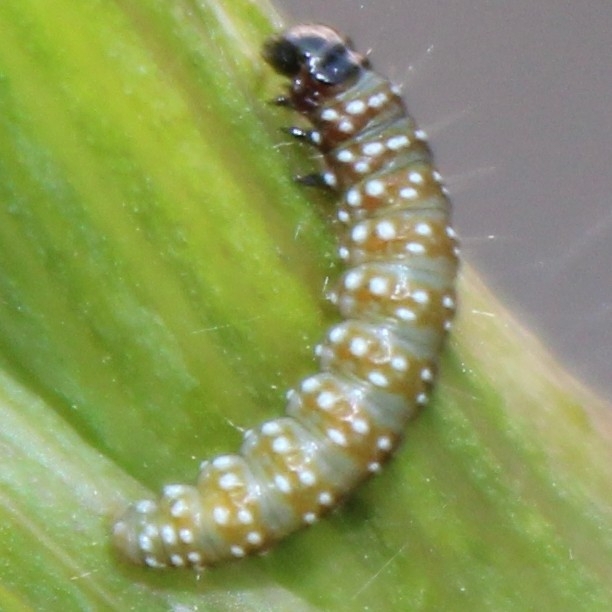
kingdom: Animalia
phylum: Arthropoda
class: Insecta
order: Lepidoptera
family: Depressariidae
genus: Depressaria
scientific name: Depressaria depressana
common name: Lost flat-body
